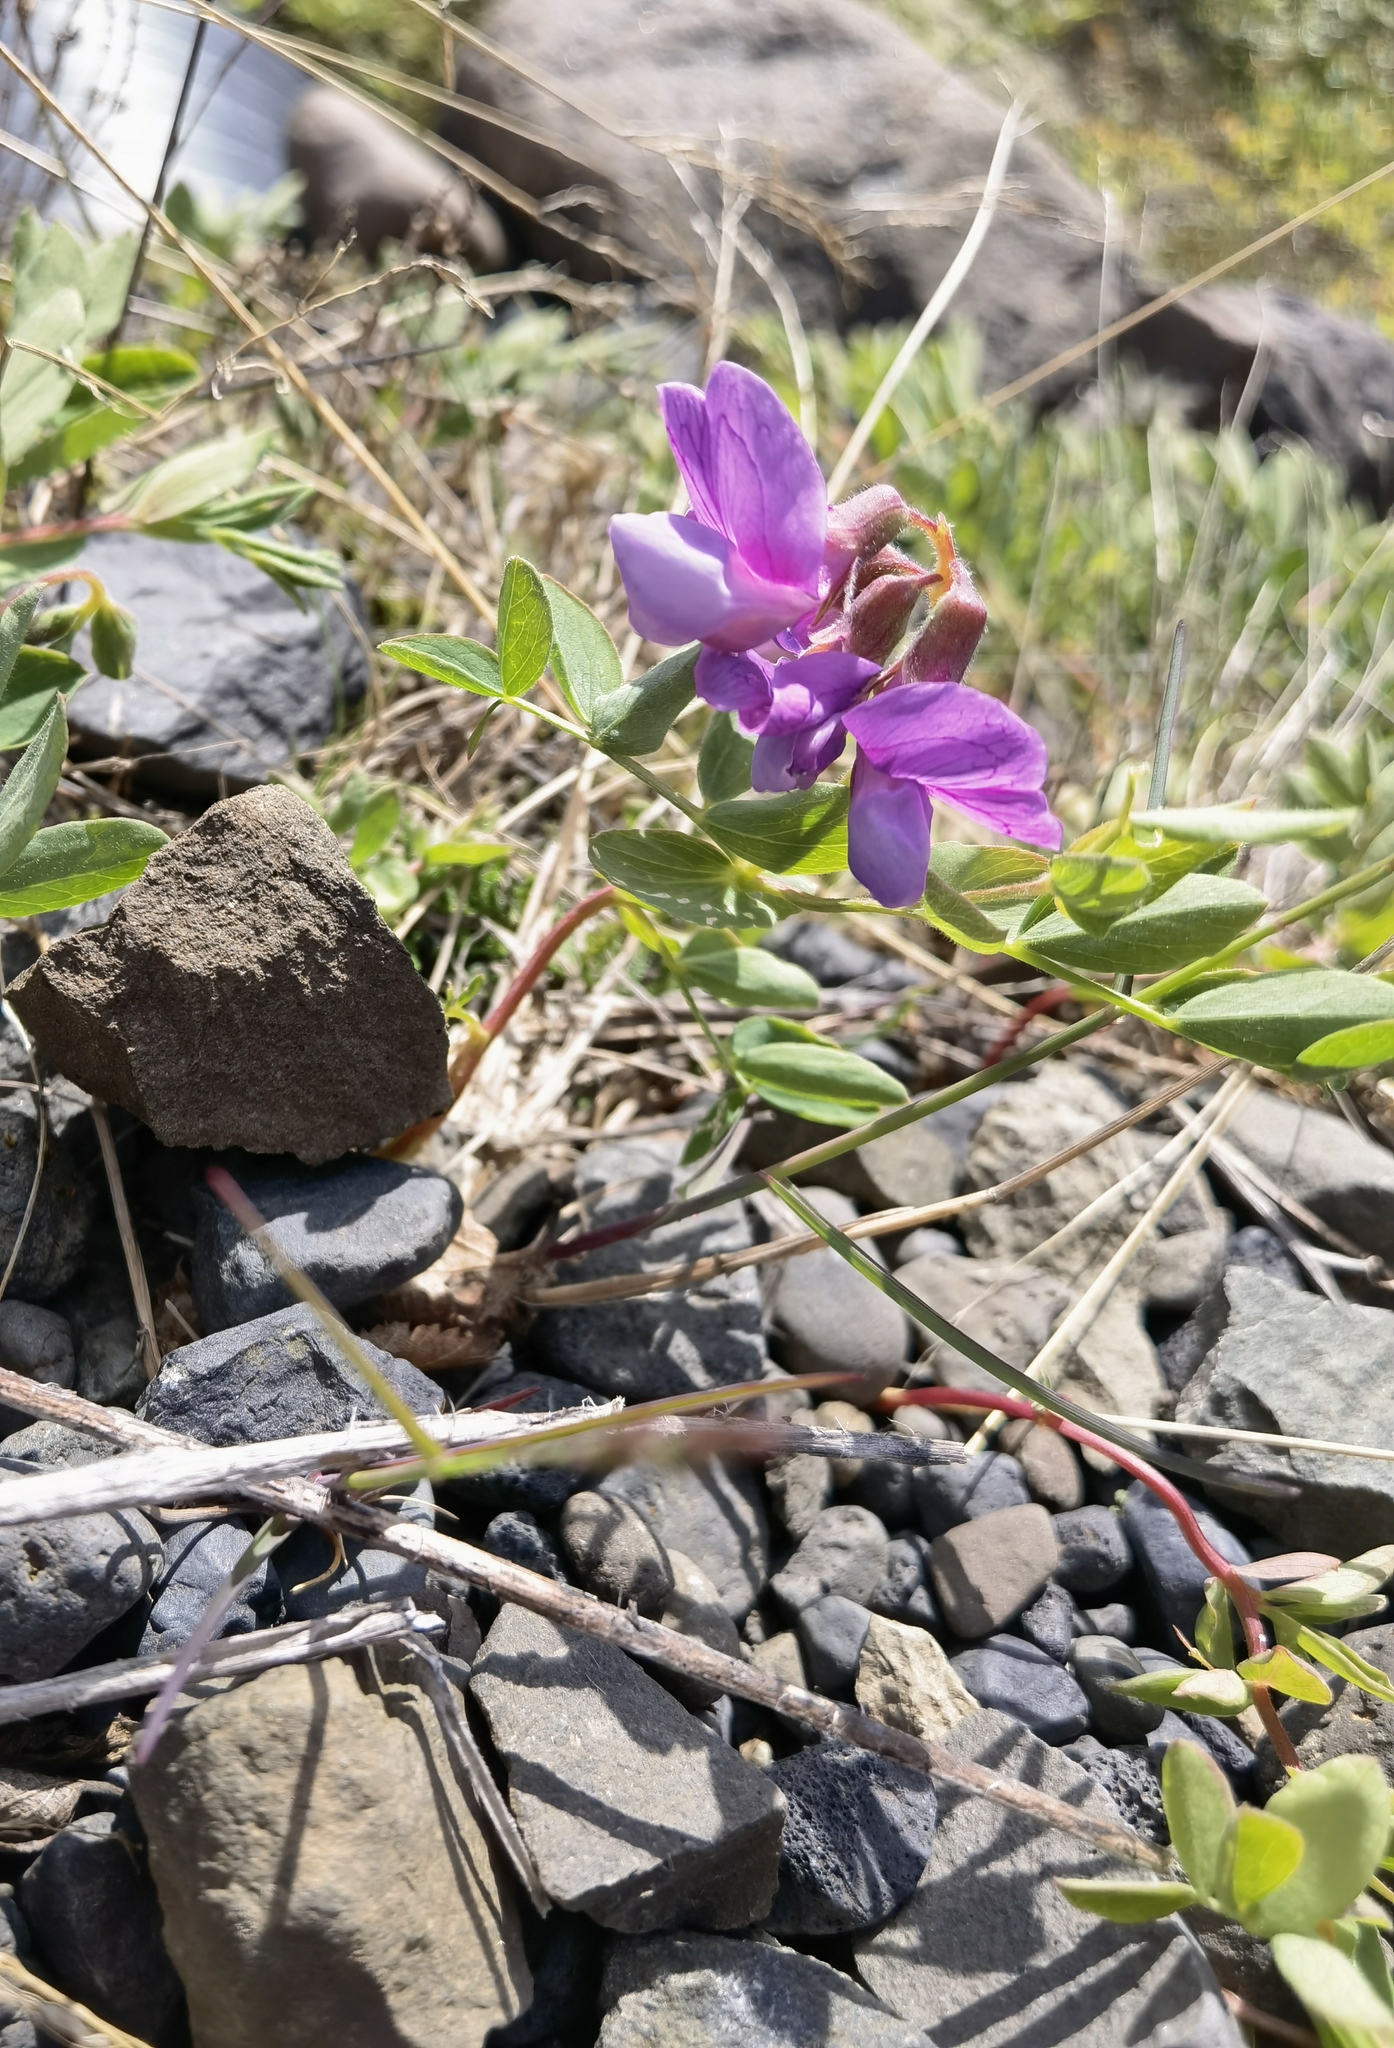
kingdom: Plantae
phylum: Tracheophyta
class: Magnoliopsida
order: Fabales
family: Fabaceae
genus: Lathyrus
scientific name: Lathyrus japonicus
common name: Sea pea
